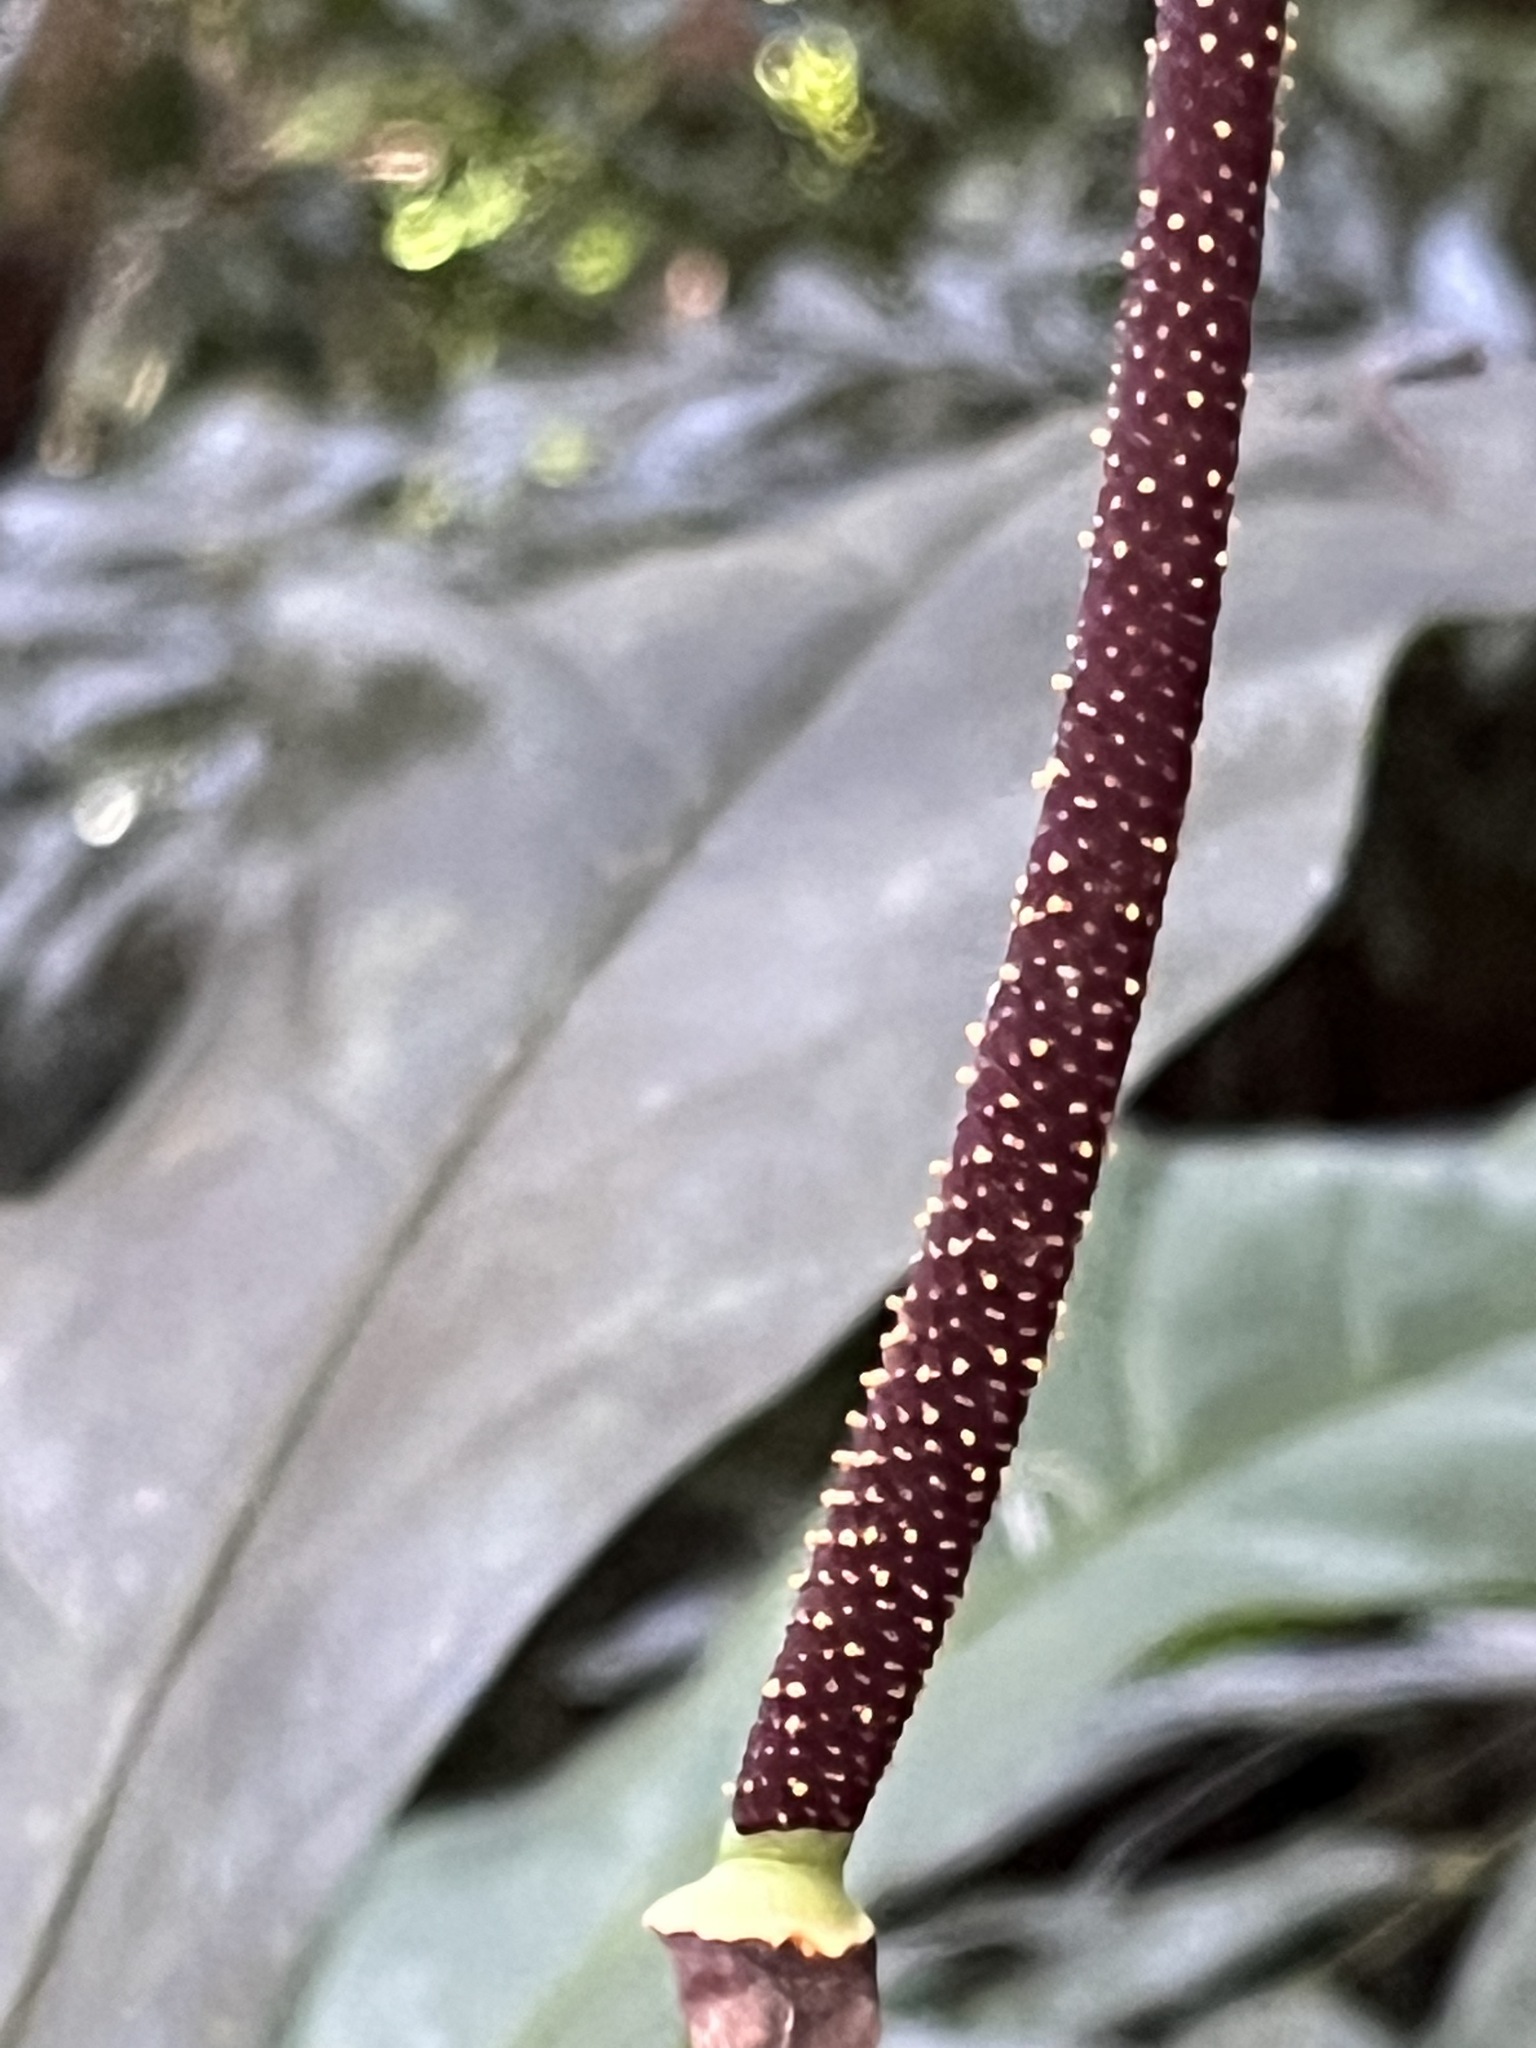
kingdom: Plantae
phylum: Tracheophyta
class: Liliopsida
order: Alismatales
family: Araceae
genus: Anthurium
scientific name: Anthurium crenatum
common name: Scalloped laceleaf
